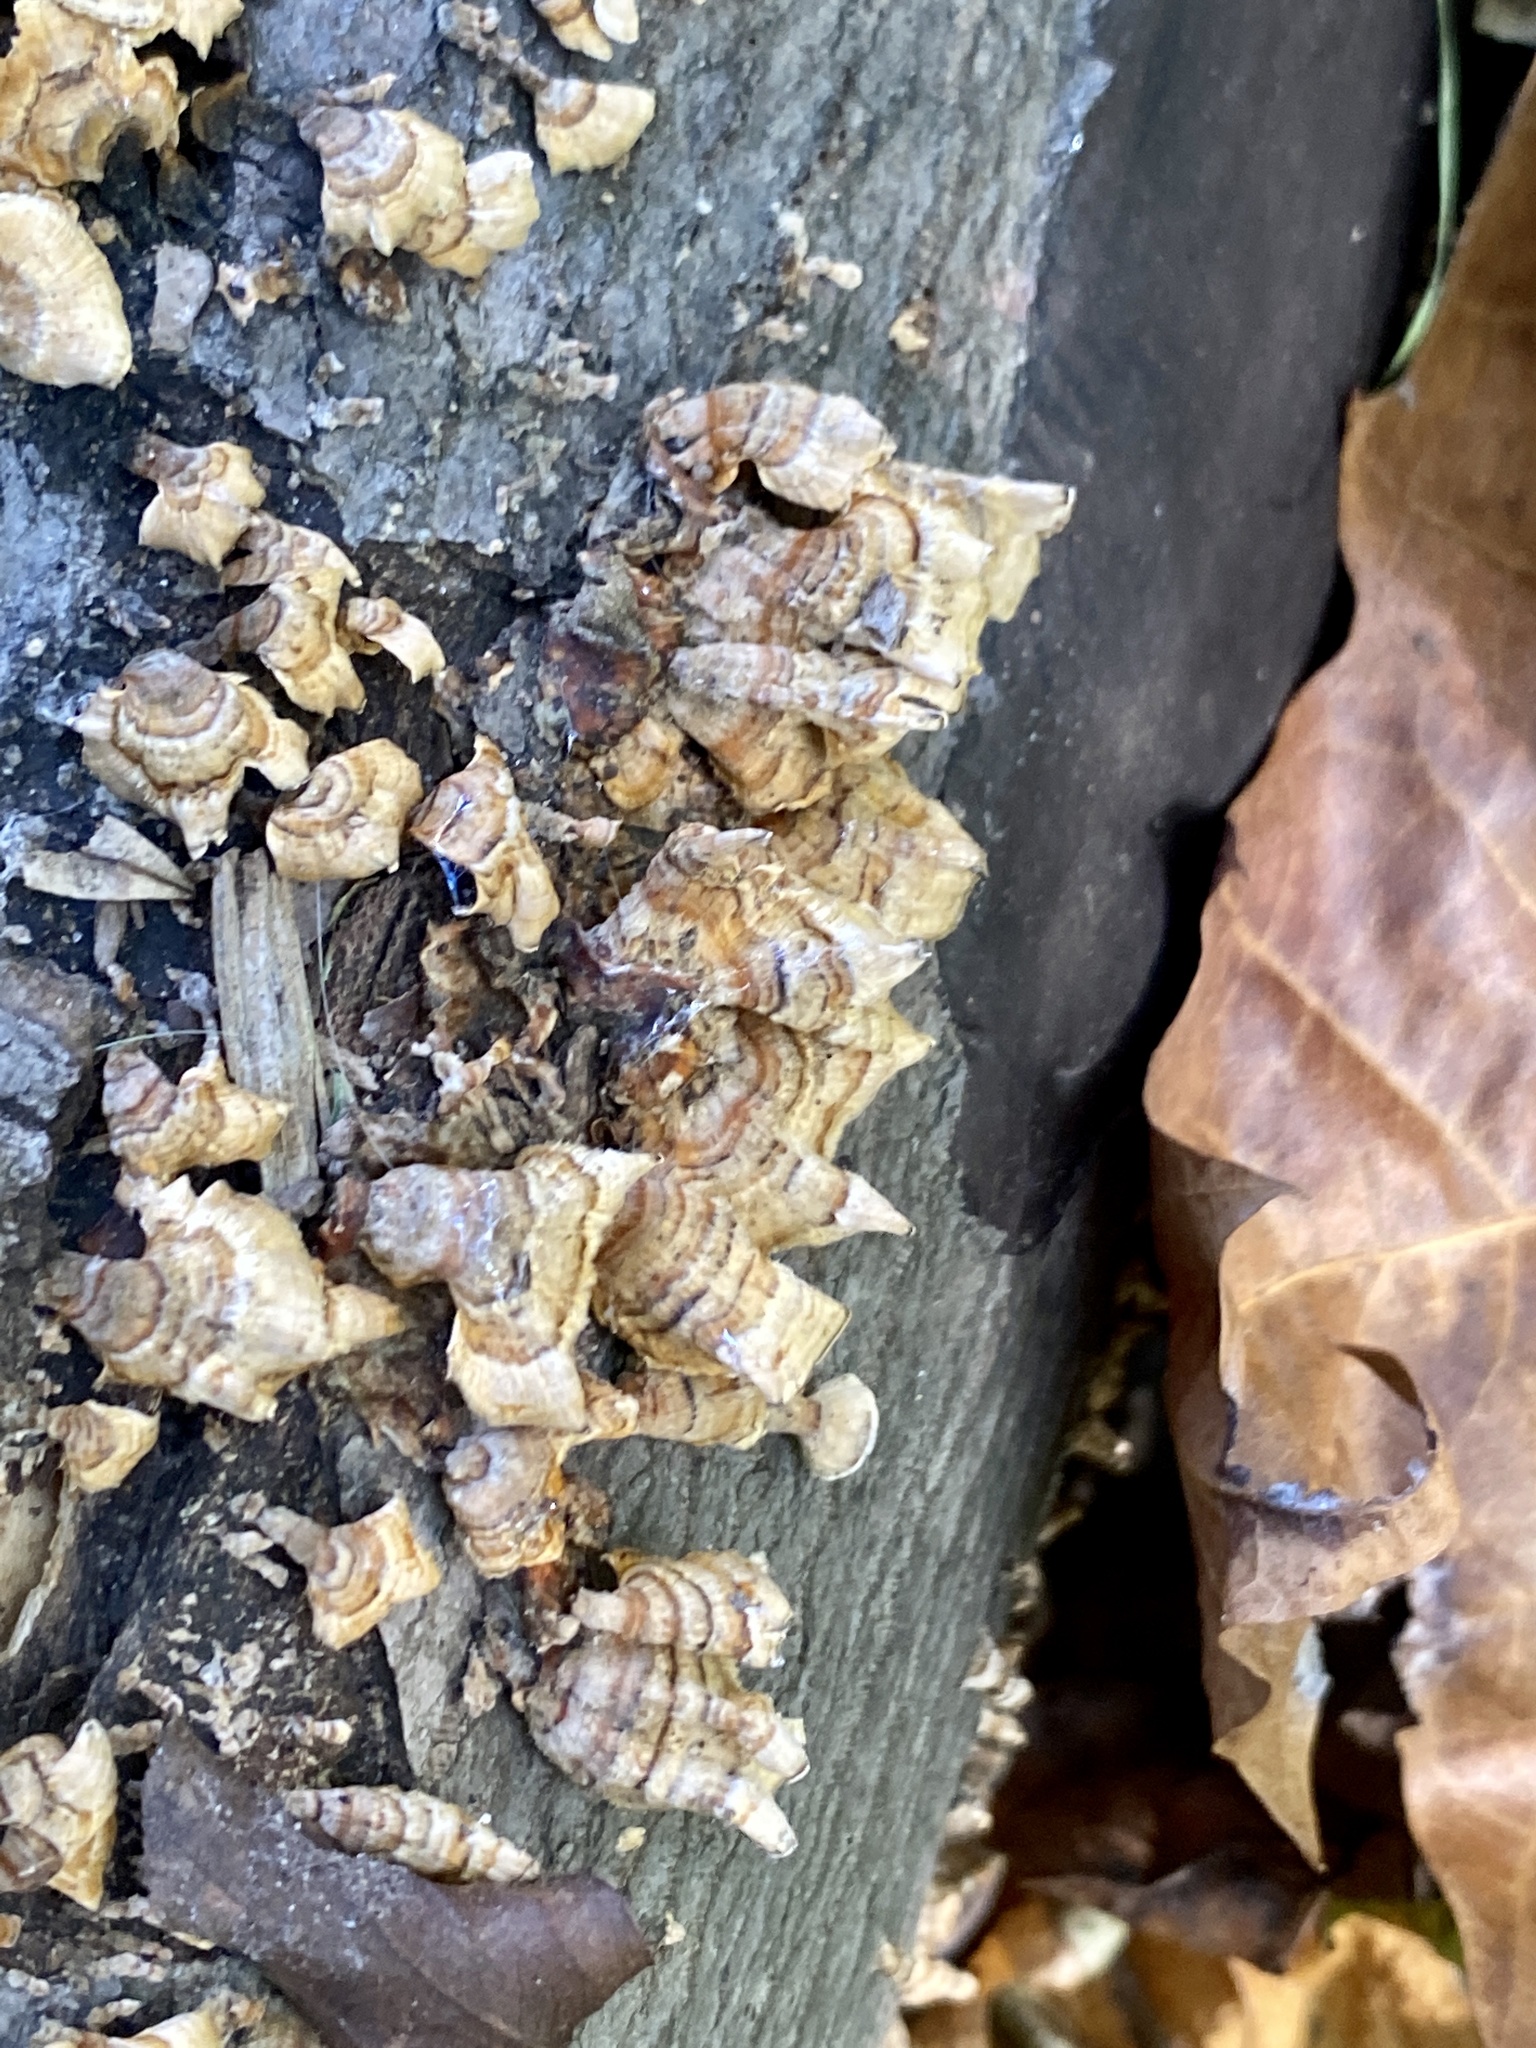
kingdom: Fungi
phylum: Basidiomycota
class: Agaricomycetes
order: Russulales
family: Stereaceae
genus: Stereum
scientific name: Stereum complicatum
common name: Crowded parchment
